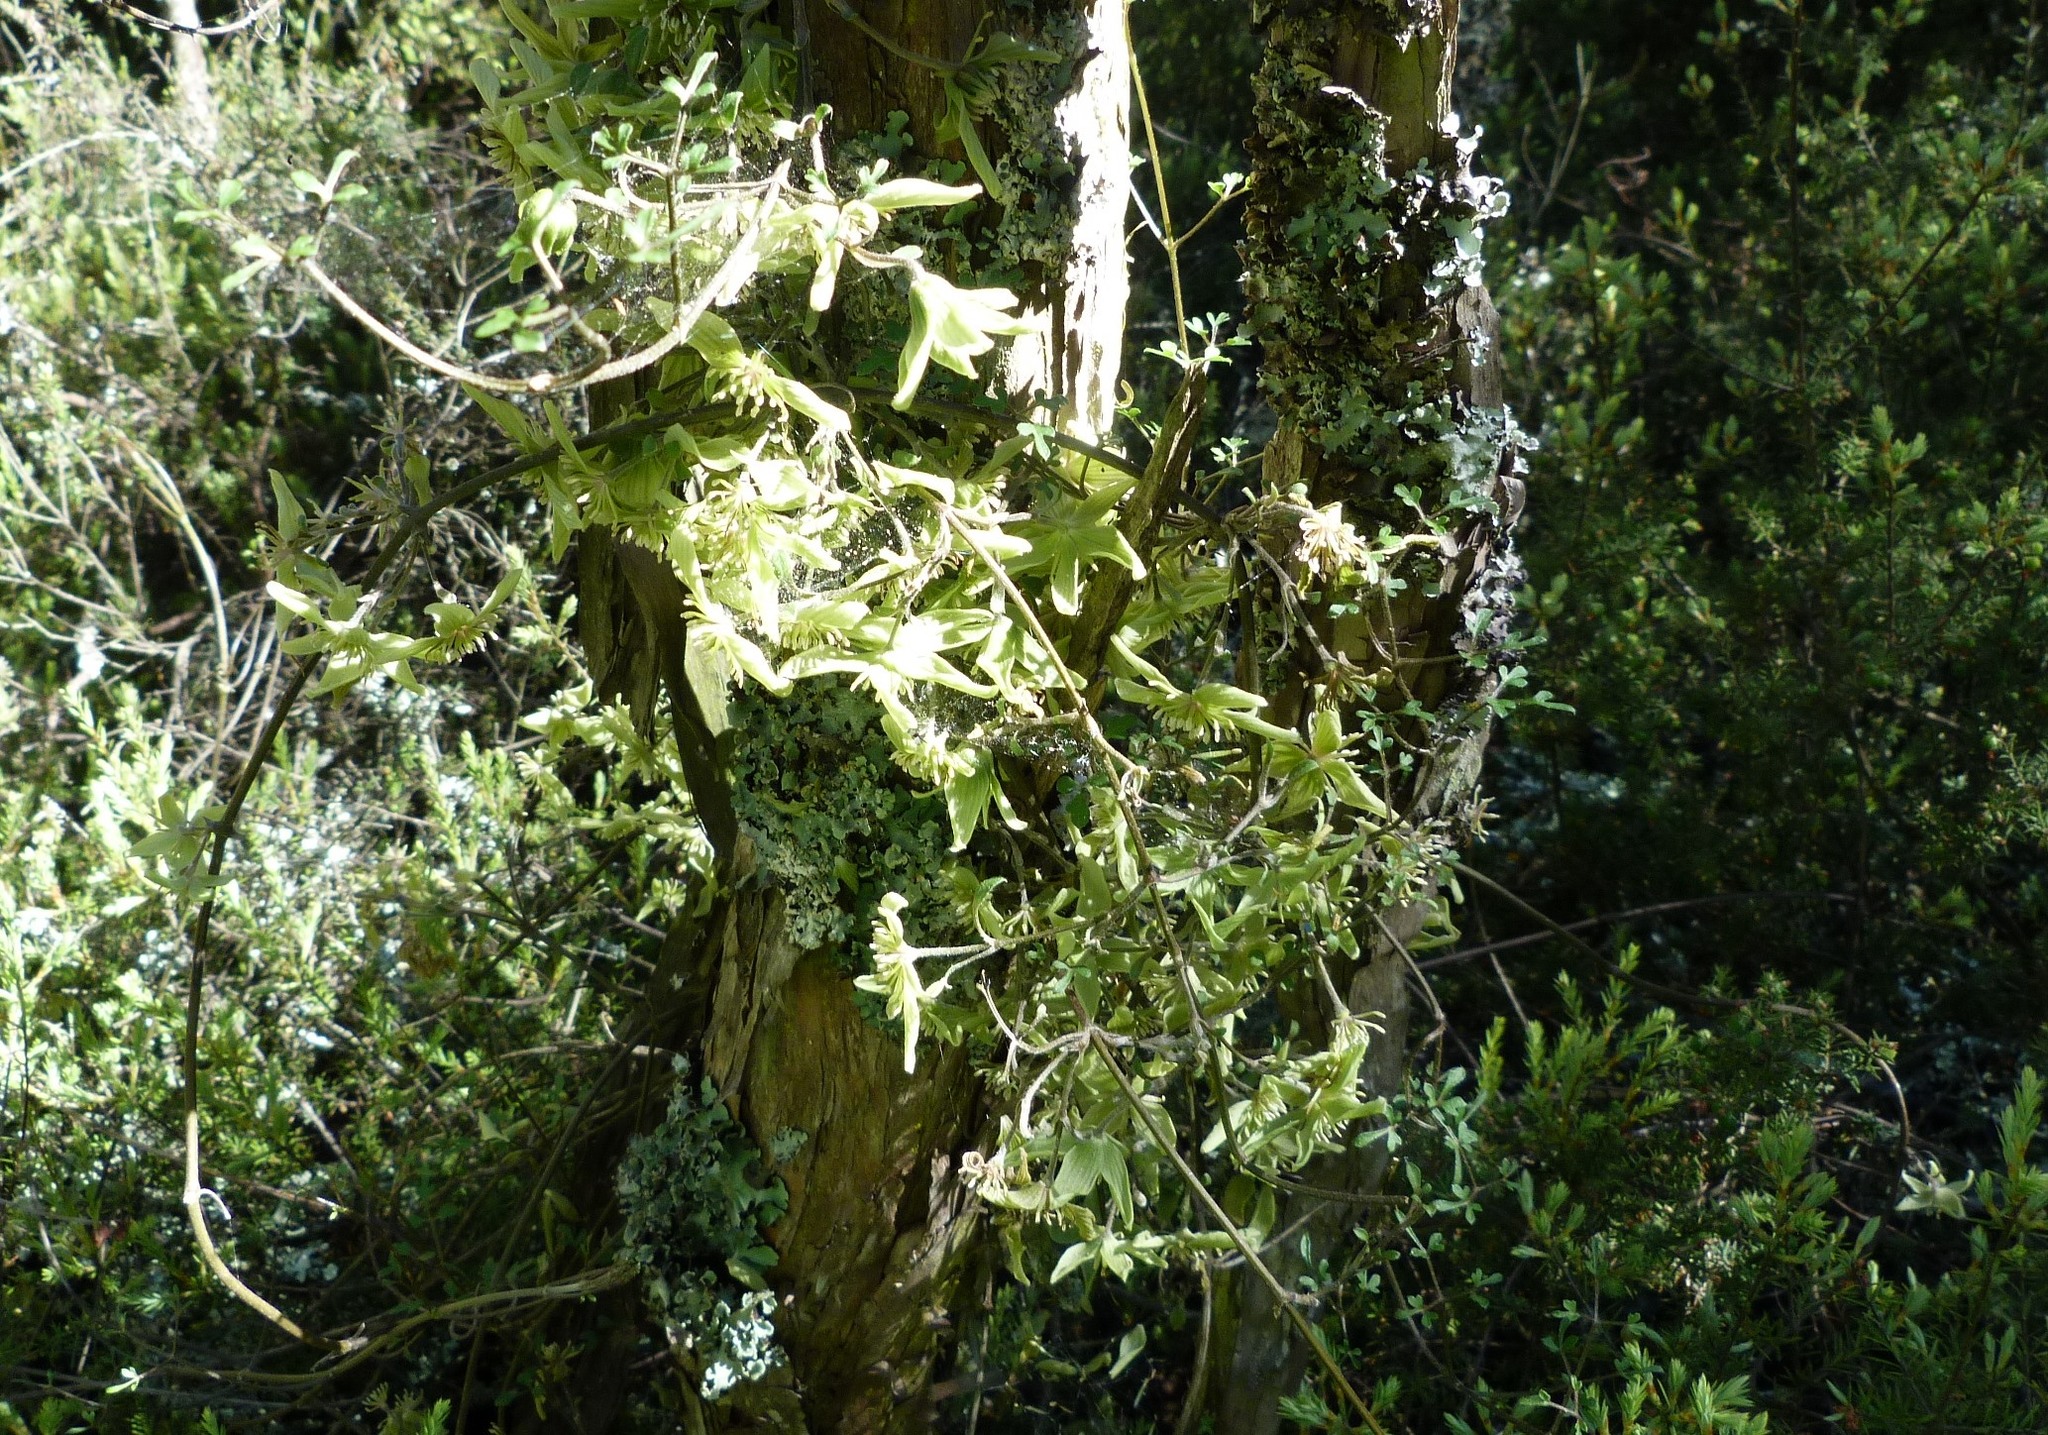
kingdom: Plantae
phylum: Tracheophyta
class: Magnoliopsida
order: Ranunculales
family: Ranunculaceae
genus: Clematis
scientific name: Clematis marata
